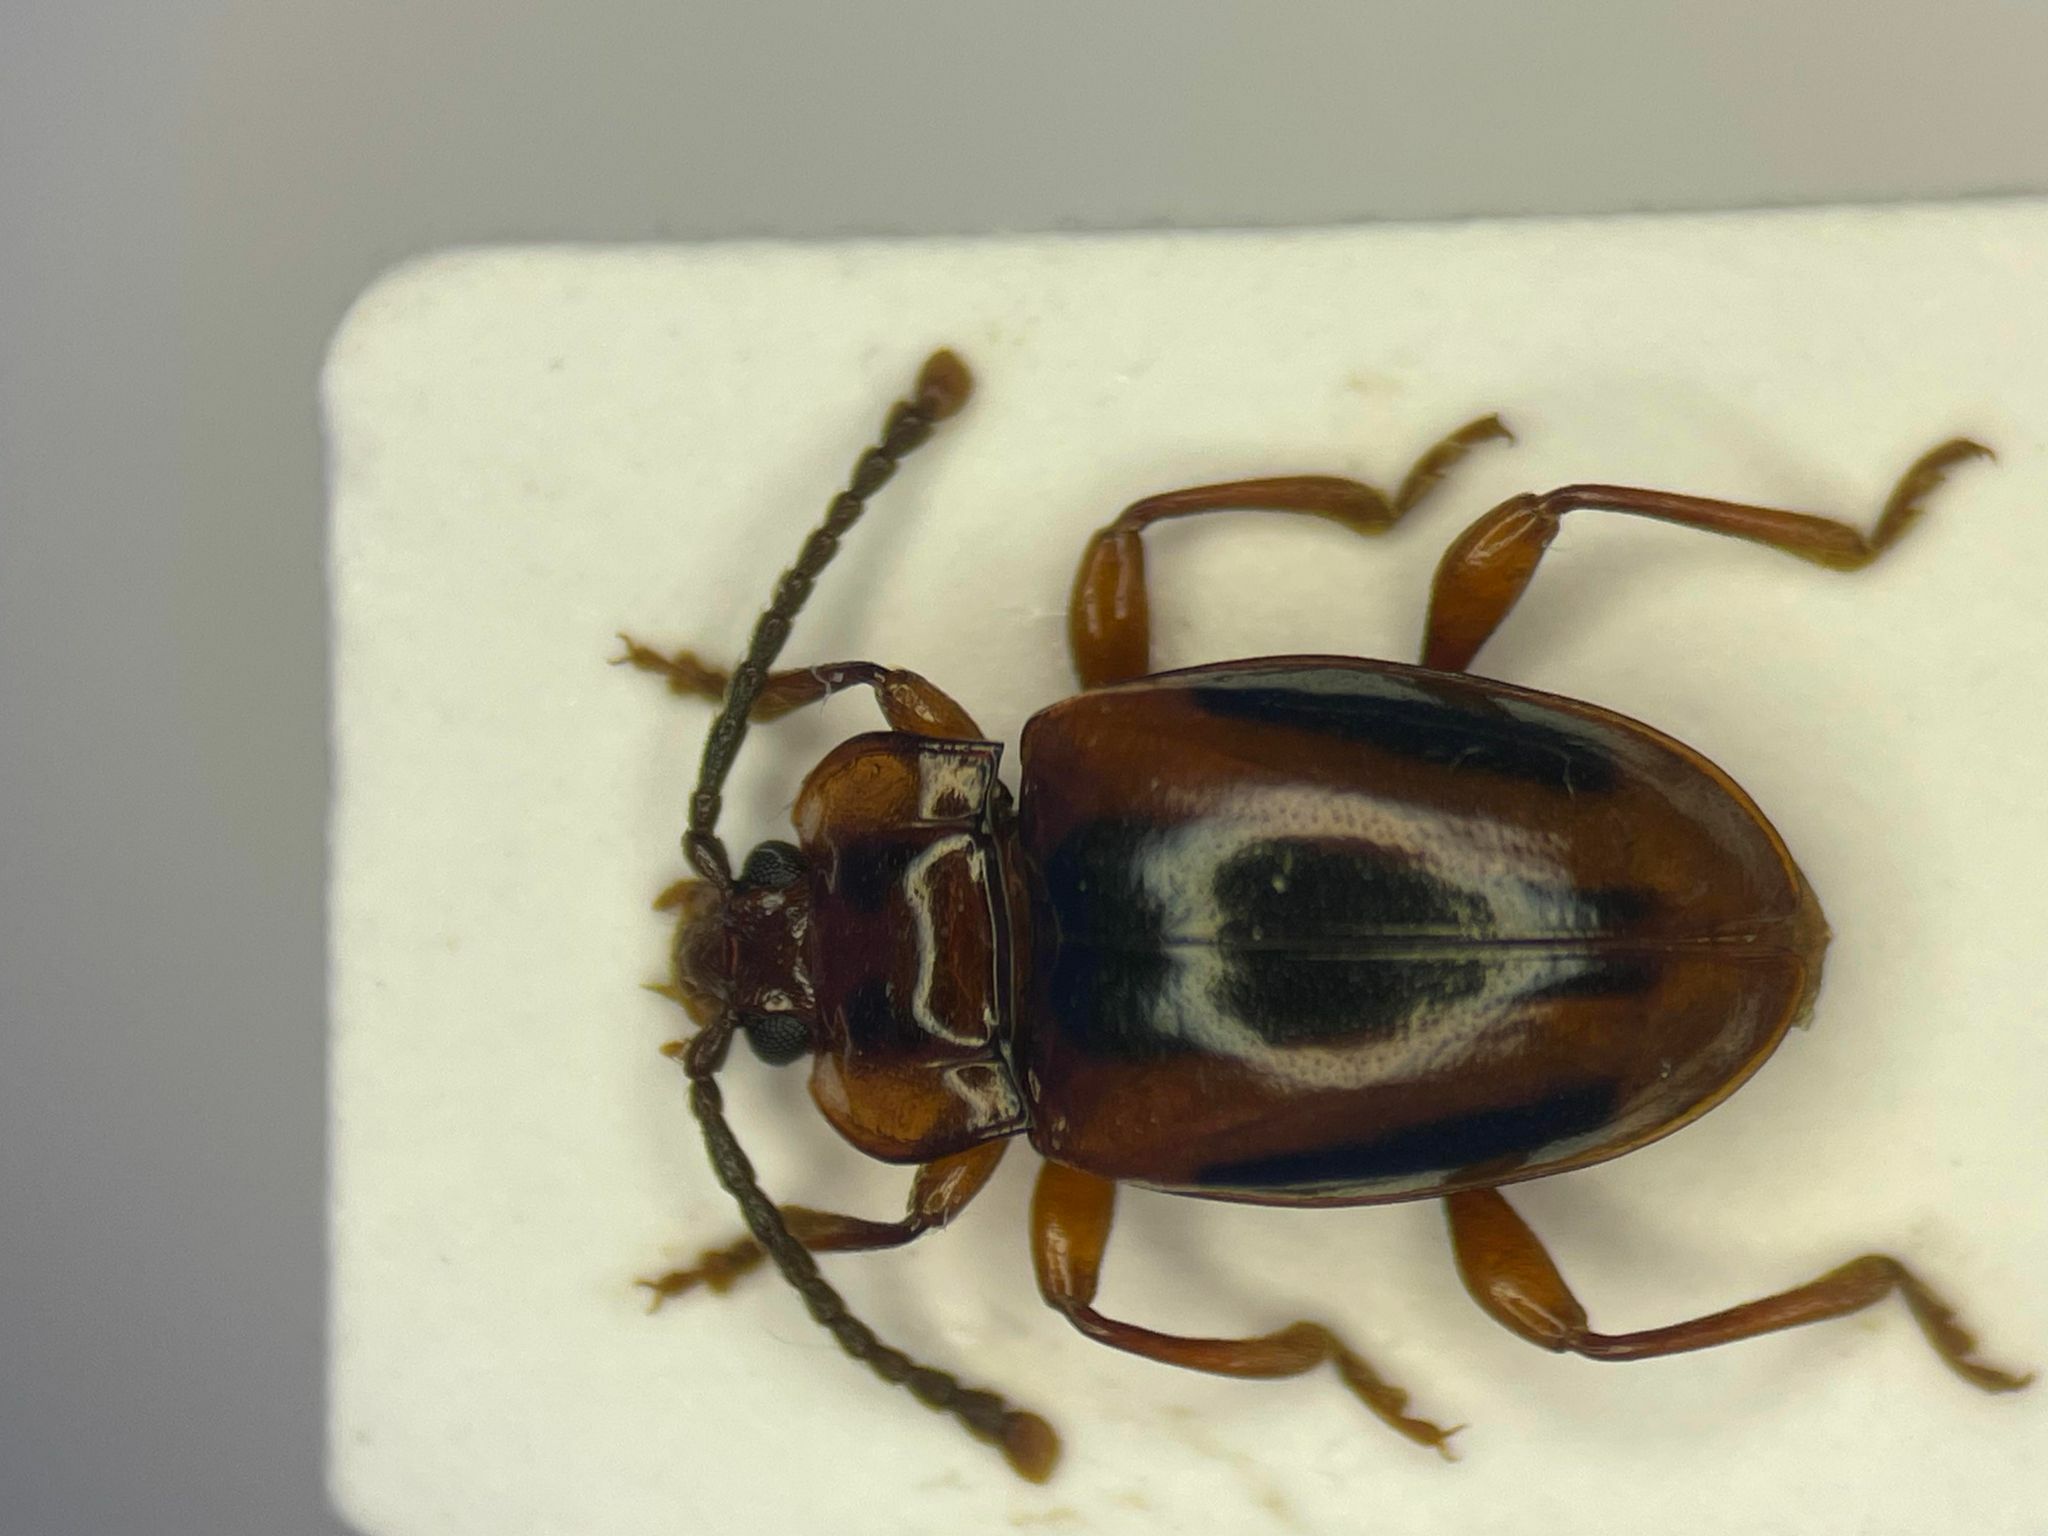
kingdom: Animalia
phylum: Arthropoda
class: Insecta
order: Coleoptera
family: Endomychidae
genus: Aphorista
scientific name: Aphorista vittata
